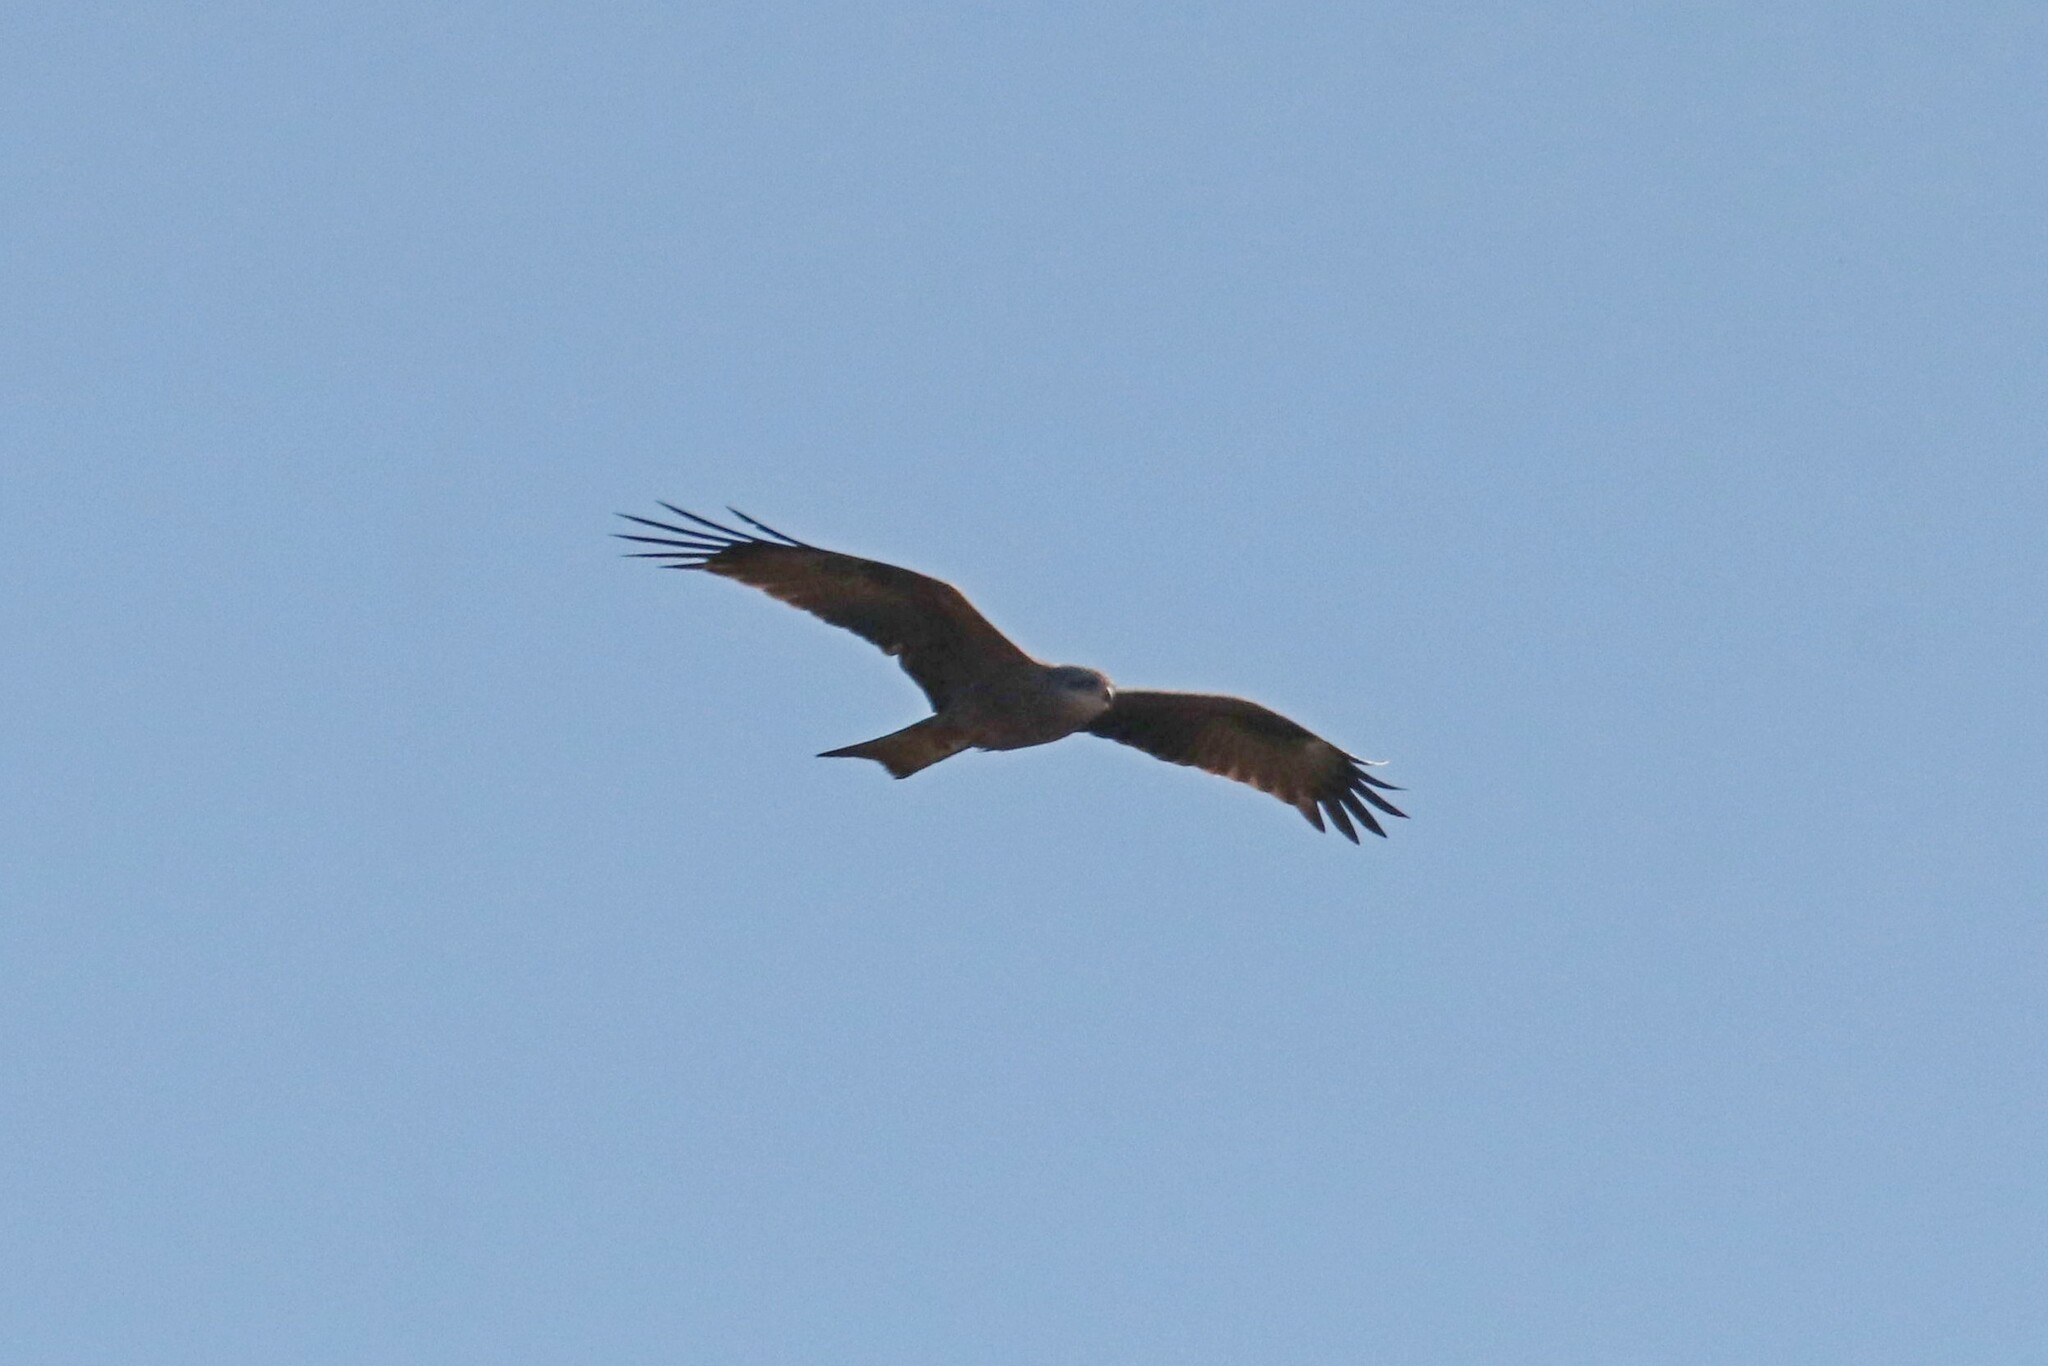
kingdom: Animalia
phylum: Chordata
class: Aves
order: Accipitriformes
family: Accipitridae
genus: Milvus
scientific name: Milvus migrans
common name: Black kite
